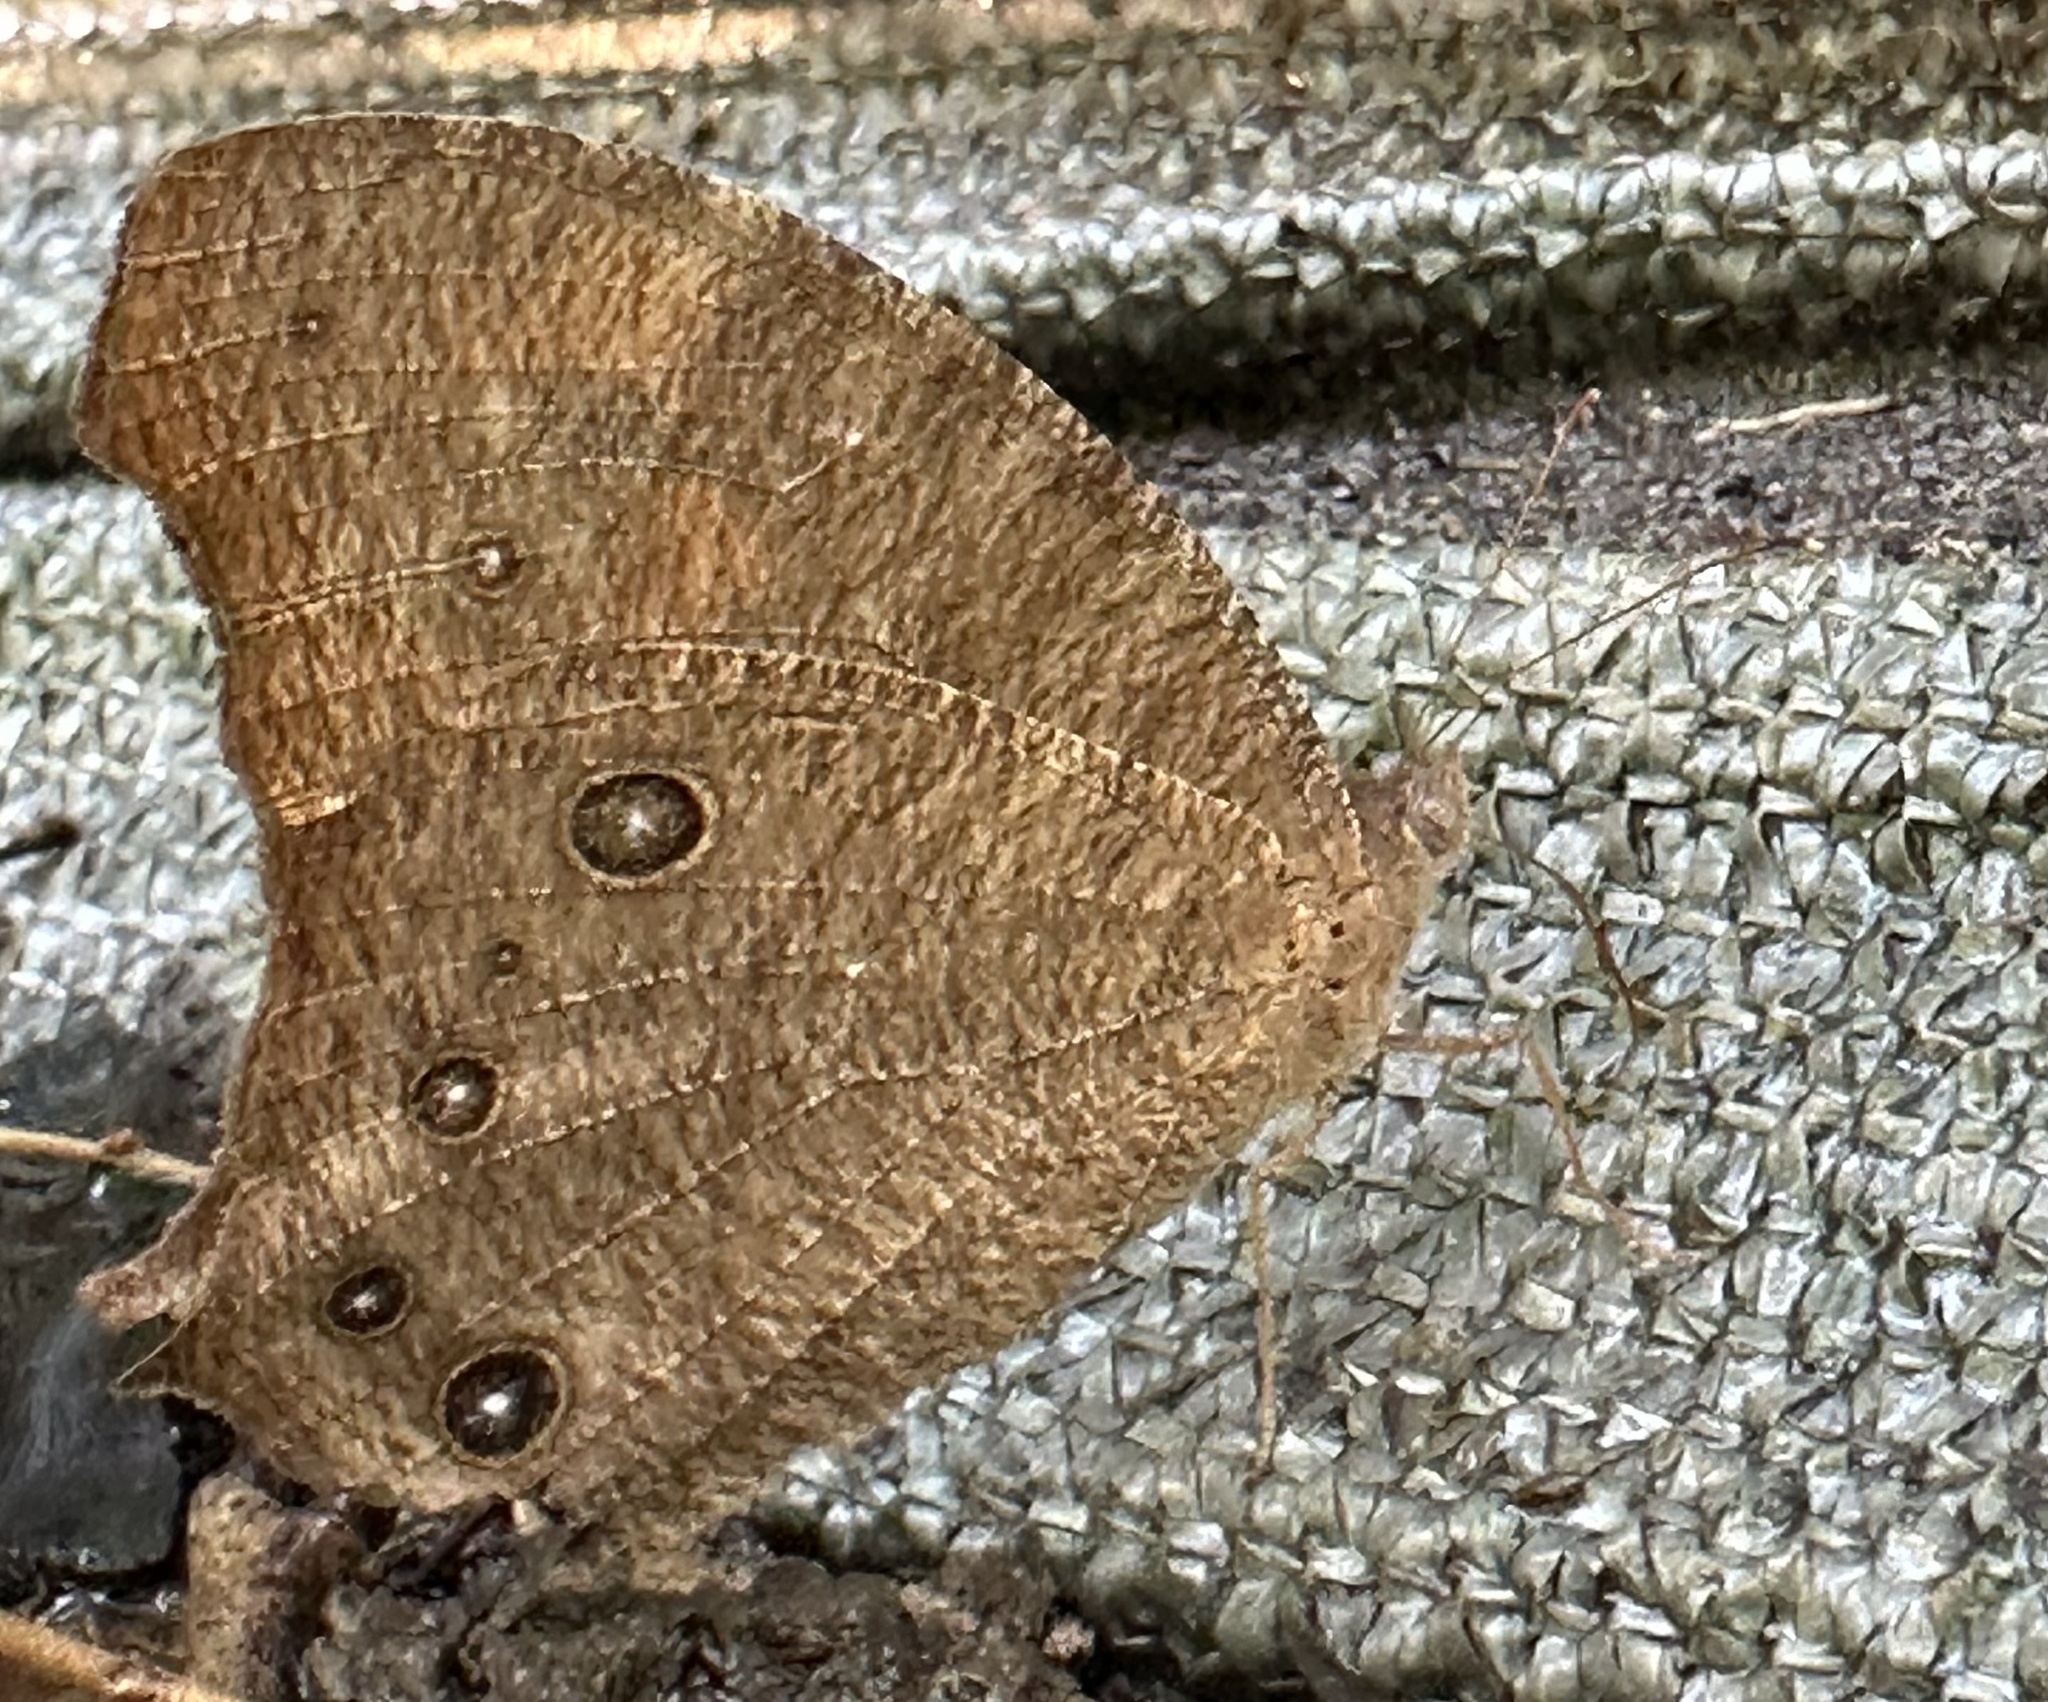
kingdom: Animalia
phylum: Arthropoda
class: Insecta
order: Lepidoptera
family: Nymphalidae
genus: Melanitis
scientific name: Melanitis leda
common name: Twilight brown
